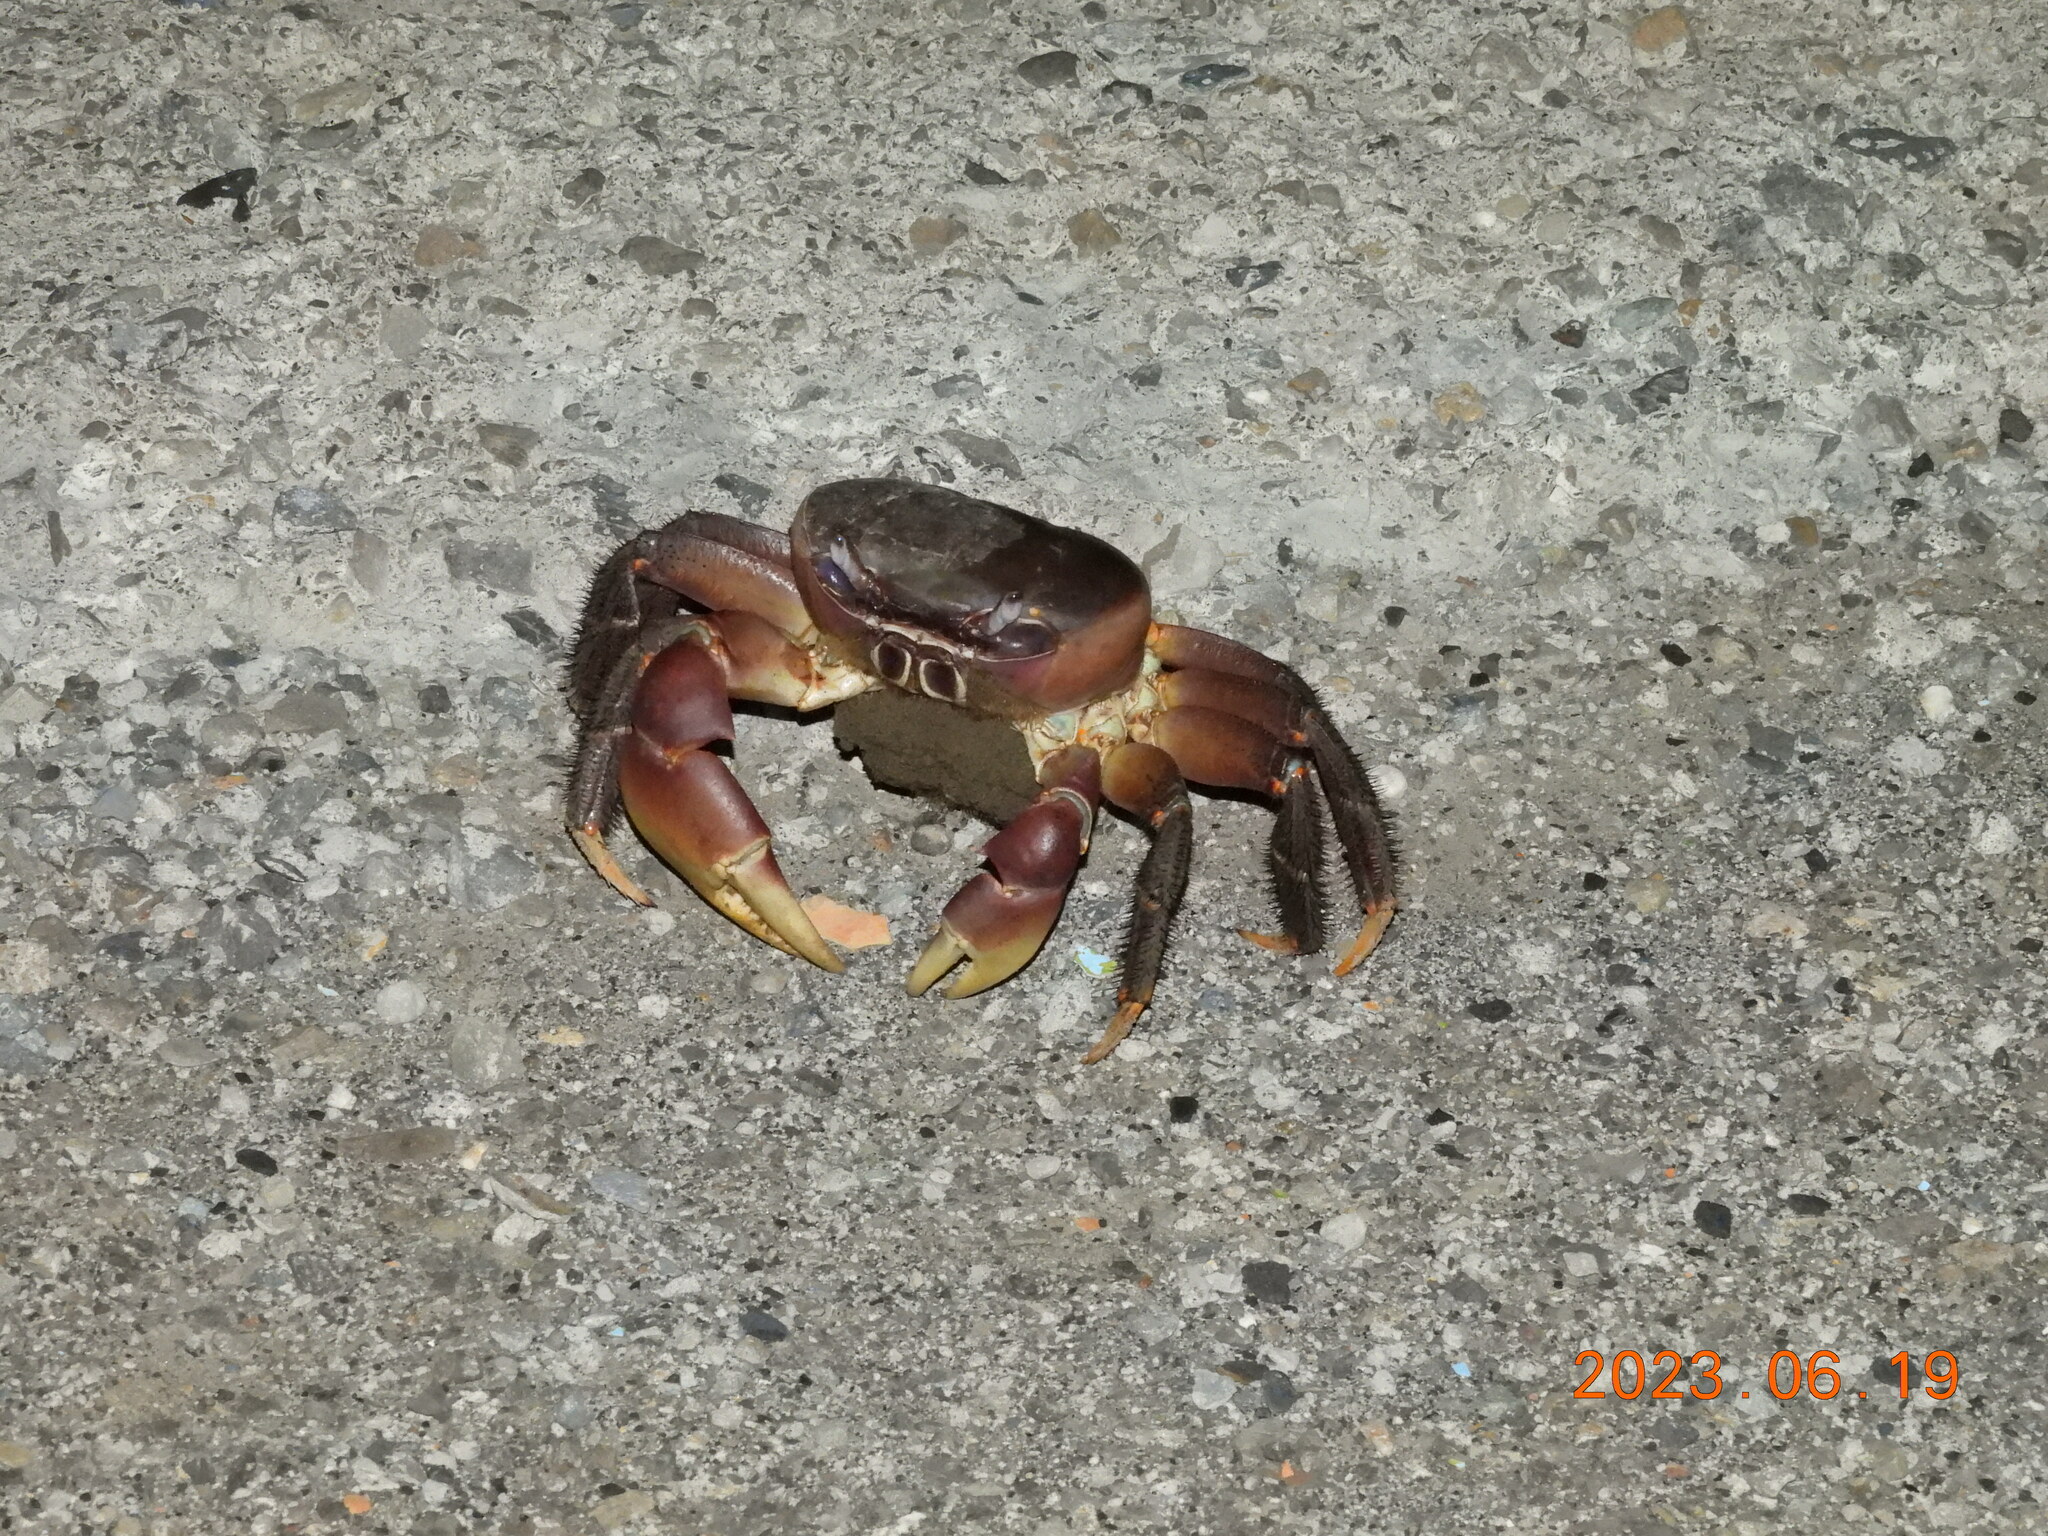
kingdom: Animalia
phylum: Arthropoda
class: Malacostraca
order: Decapoda
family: Gecarcinidae
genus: Cardisoma
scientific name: Cardisoma carnifex
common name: Brown land crab
